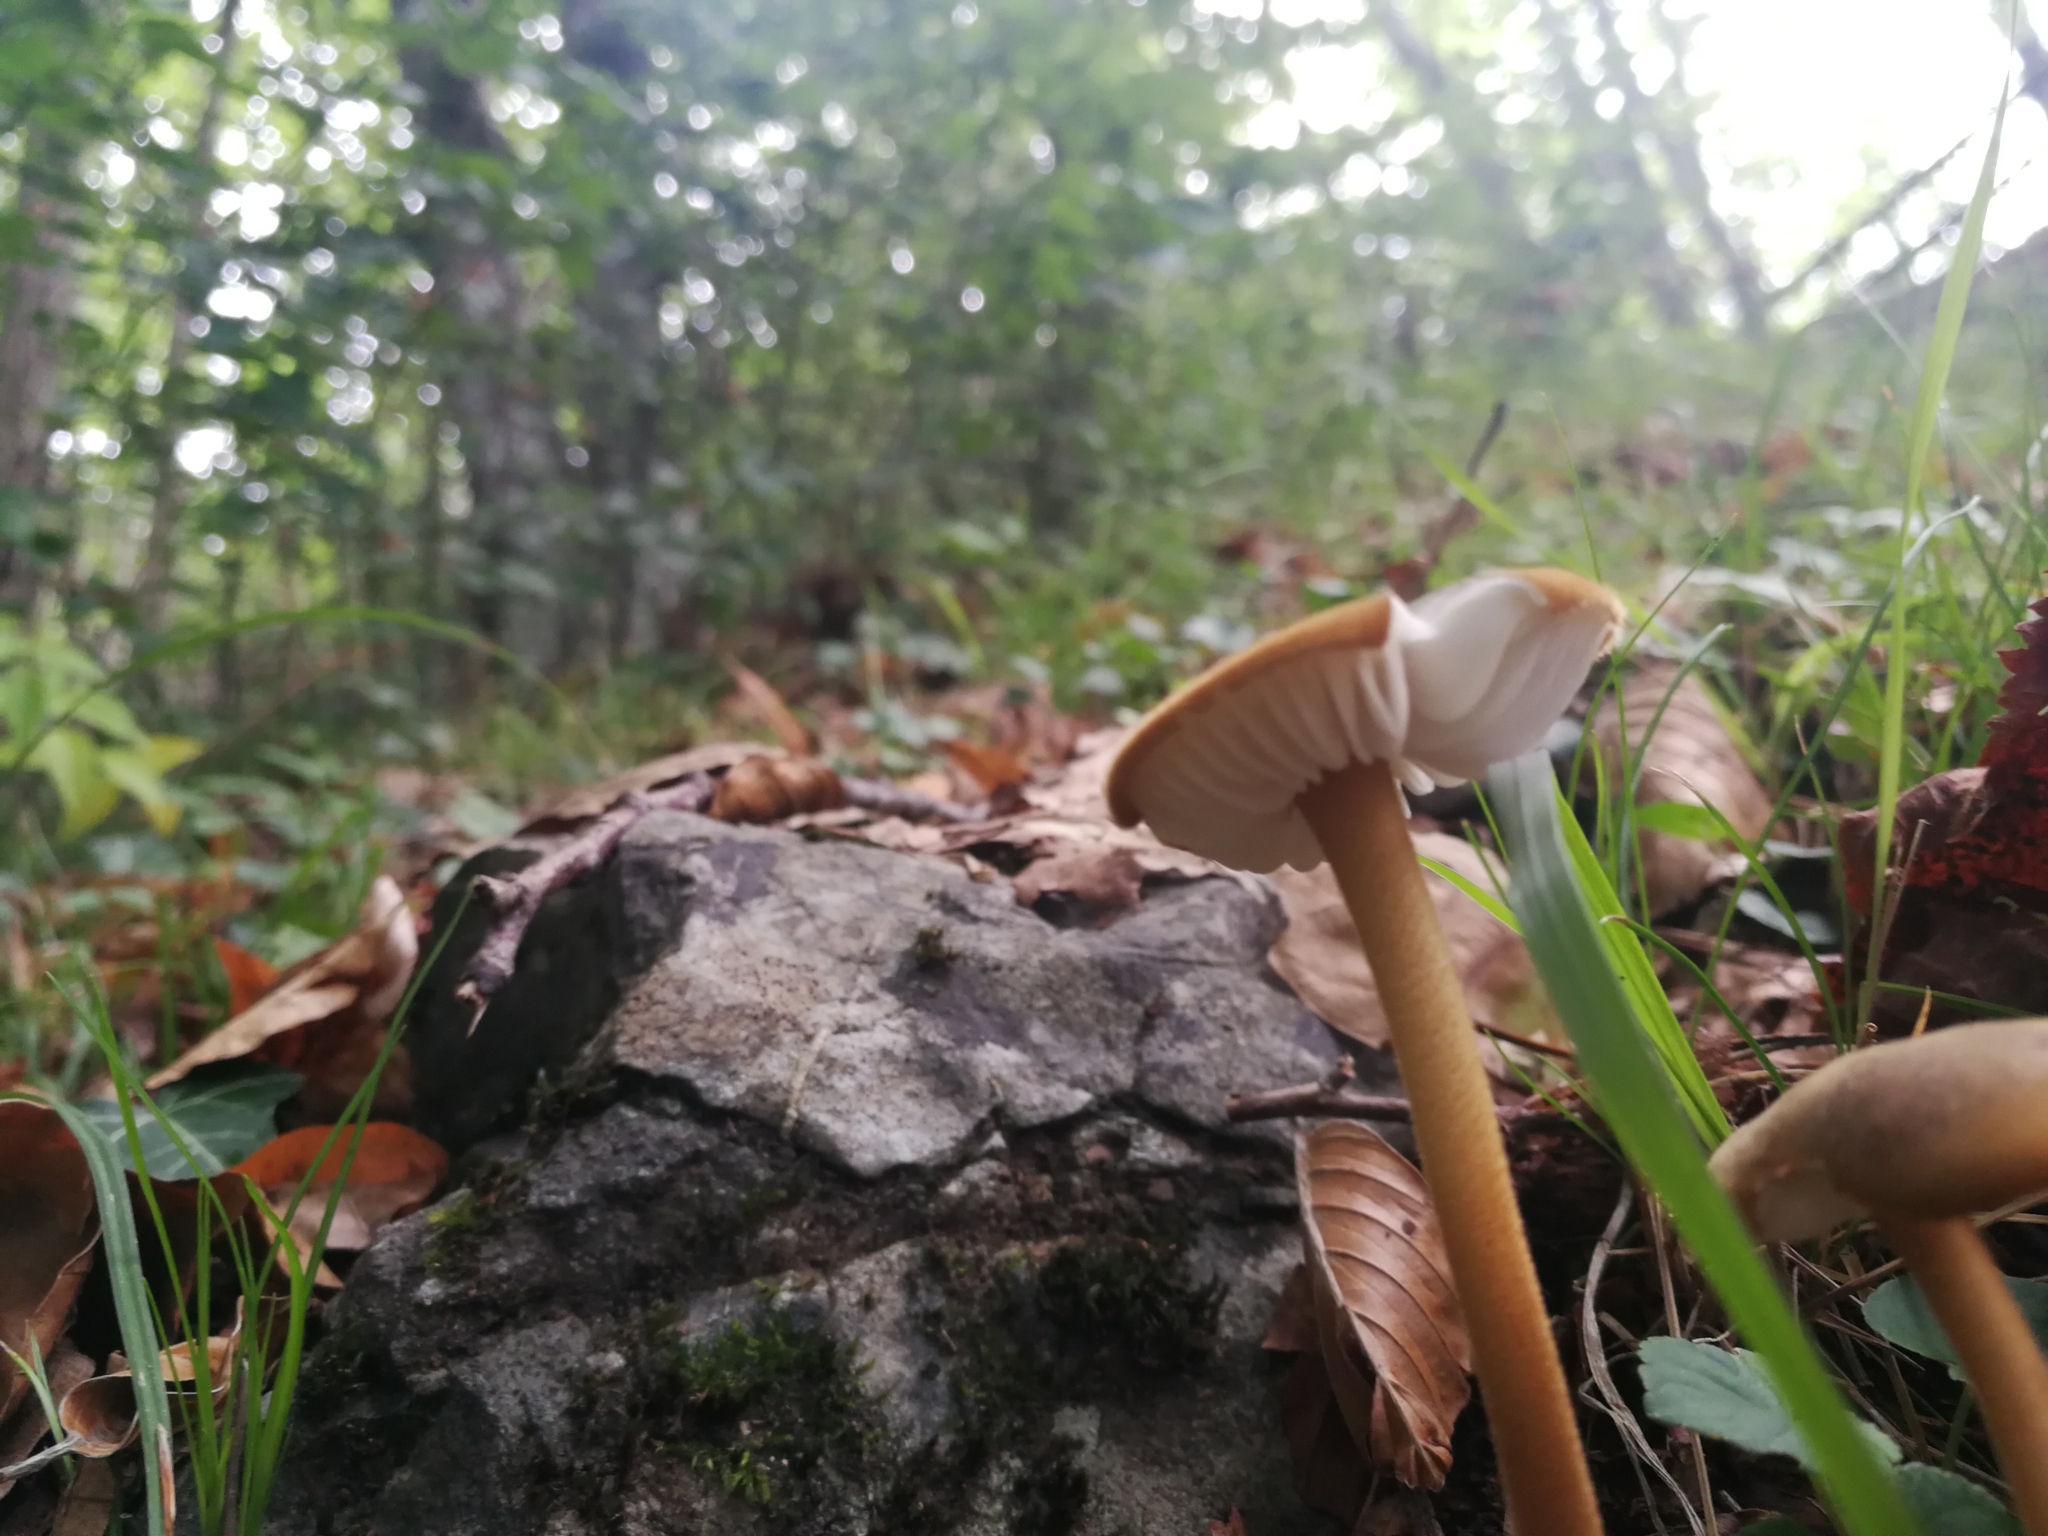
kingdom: Fungi
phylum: Basidiomycota
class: Agaricomycetes
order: Agaricales
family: Physalacriaceae
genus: Xerula
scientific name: Xerula pudens
